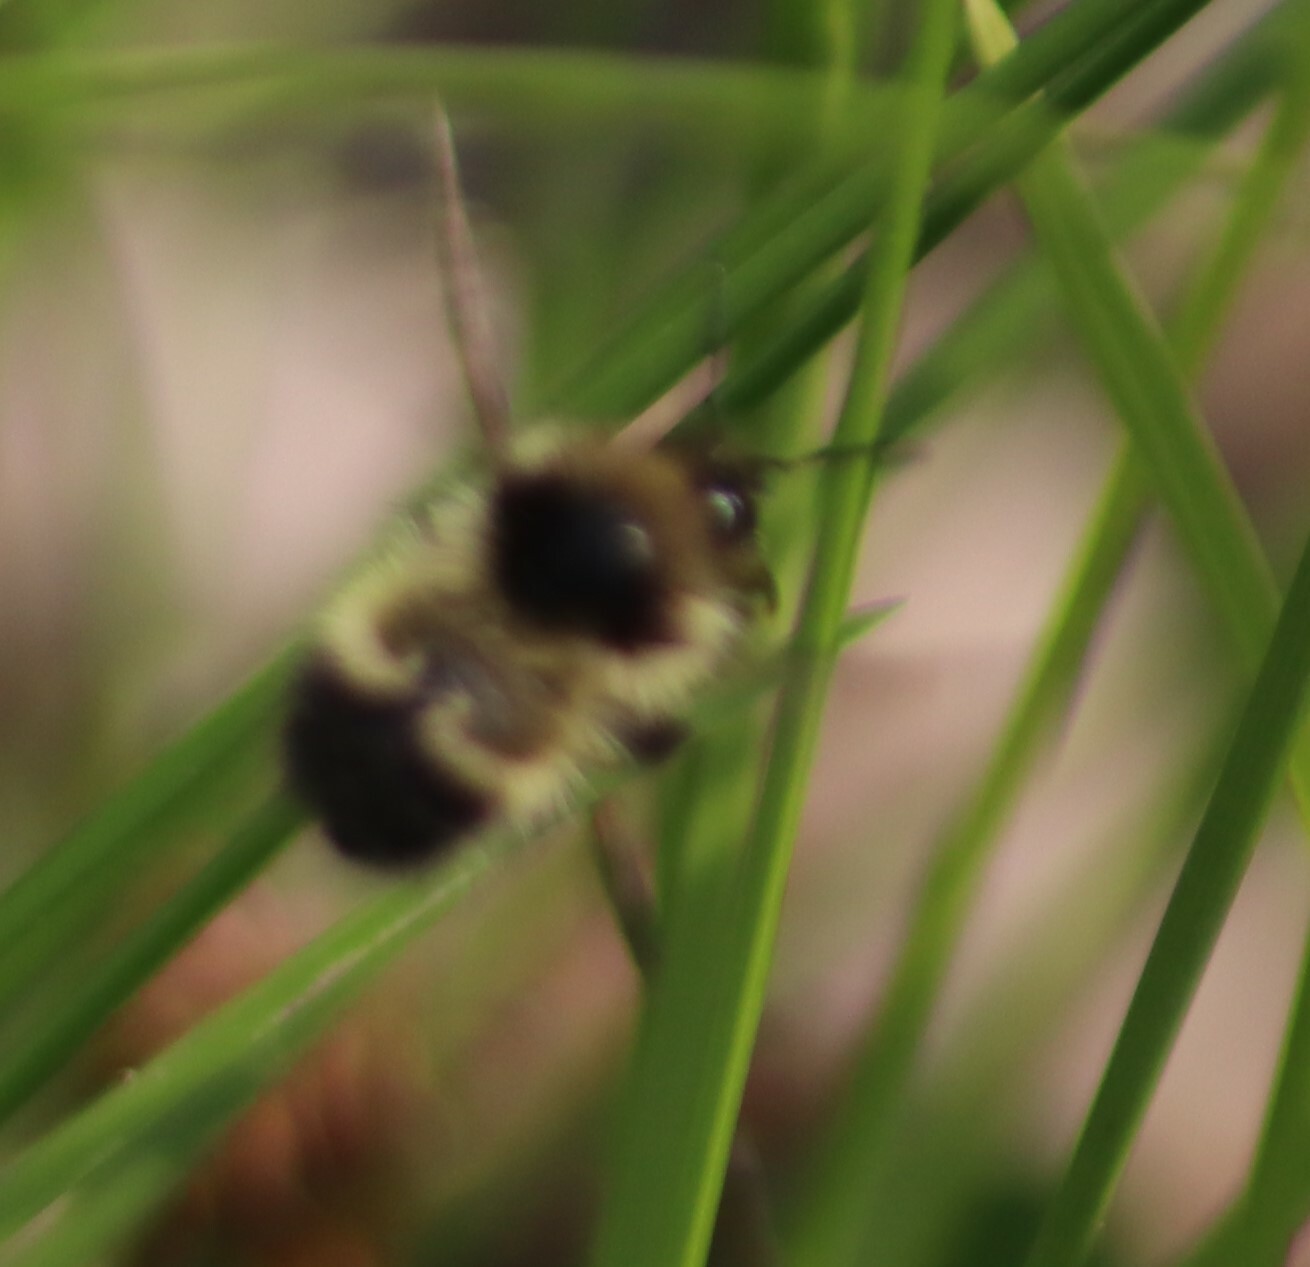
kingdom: Animalia
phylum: Arthropoda
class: Insecta
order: Hymenoptera
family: Apidae
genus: Bombus
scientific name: Bombus vagans
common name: Half-black bumble bee
